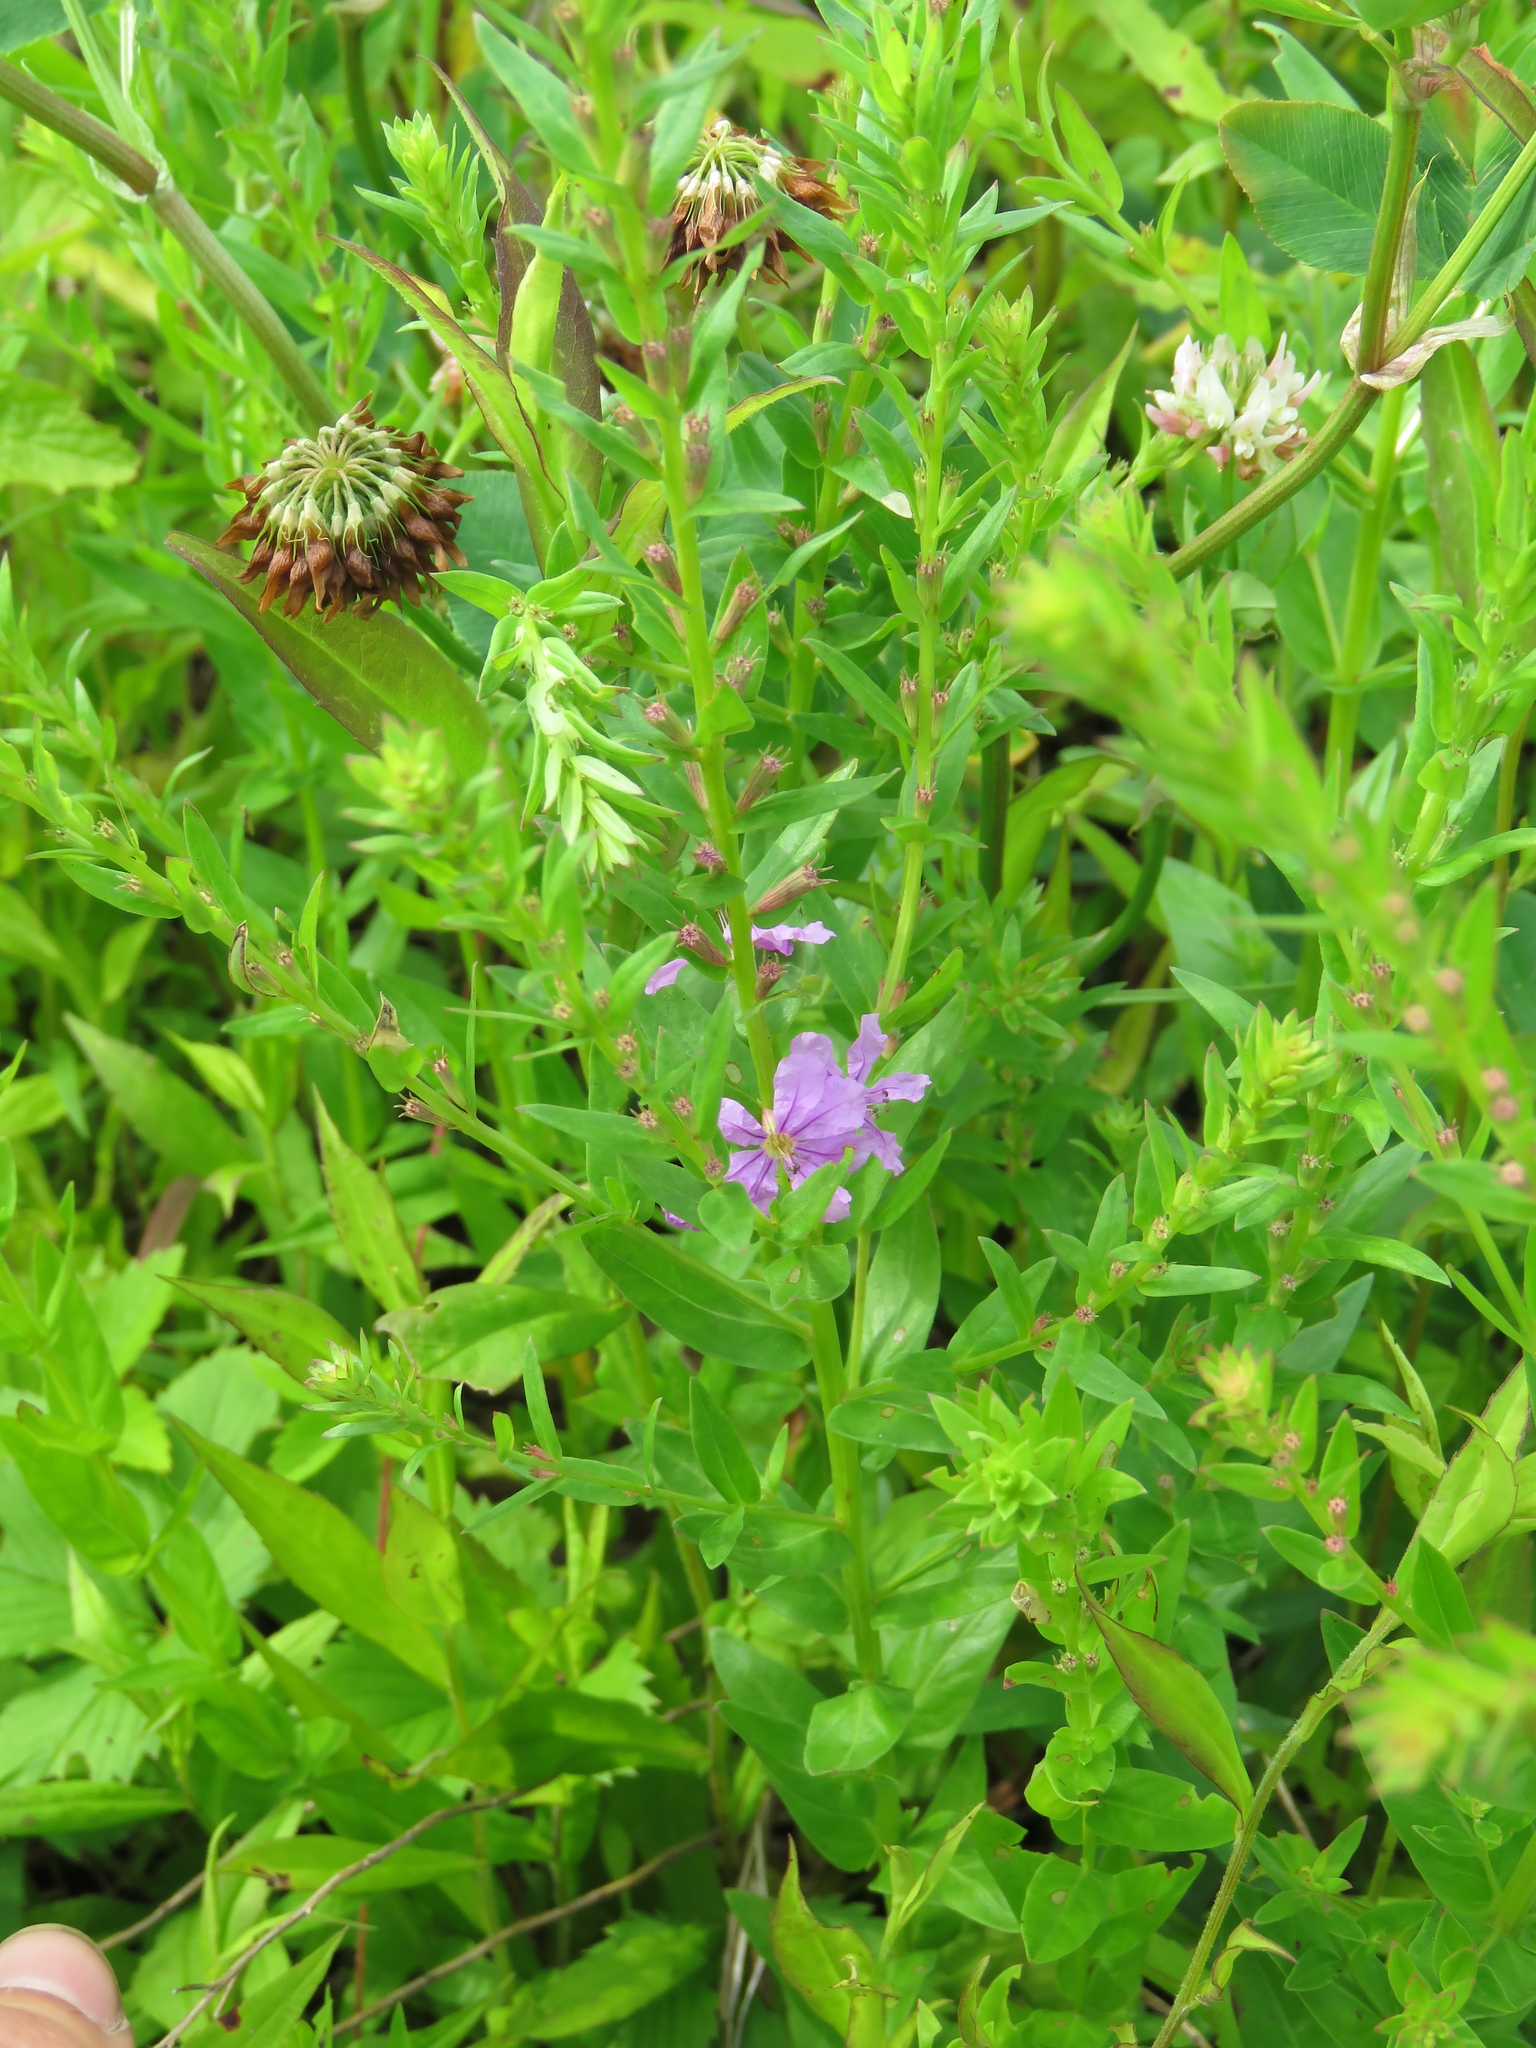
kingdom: Plantae
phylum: Tracheophyta
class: Magnoliopsida
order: Myrtales
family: Lythraceae
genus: Lythrum
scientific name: Lythrum alatum
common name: Winged loosestrife
